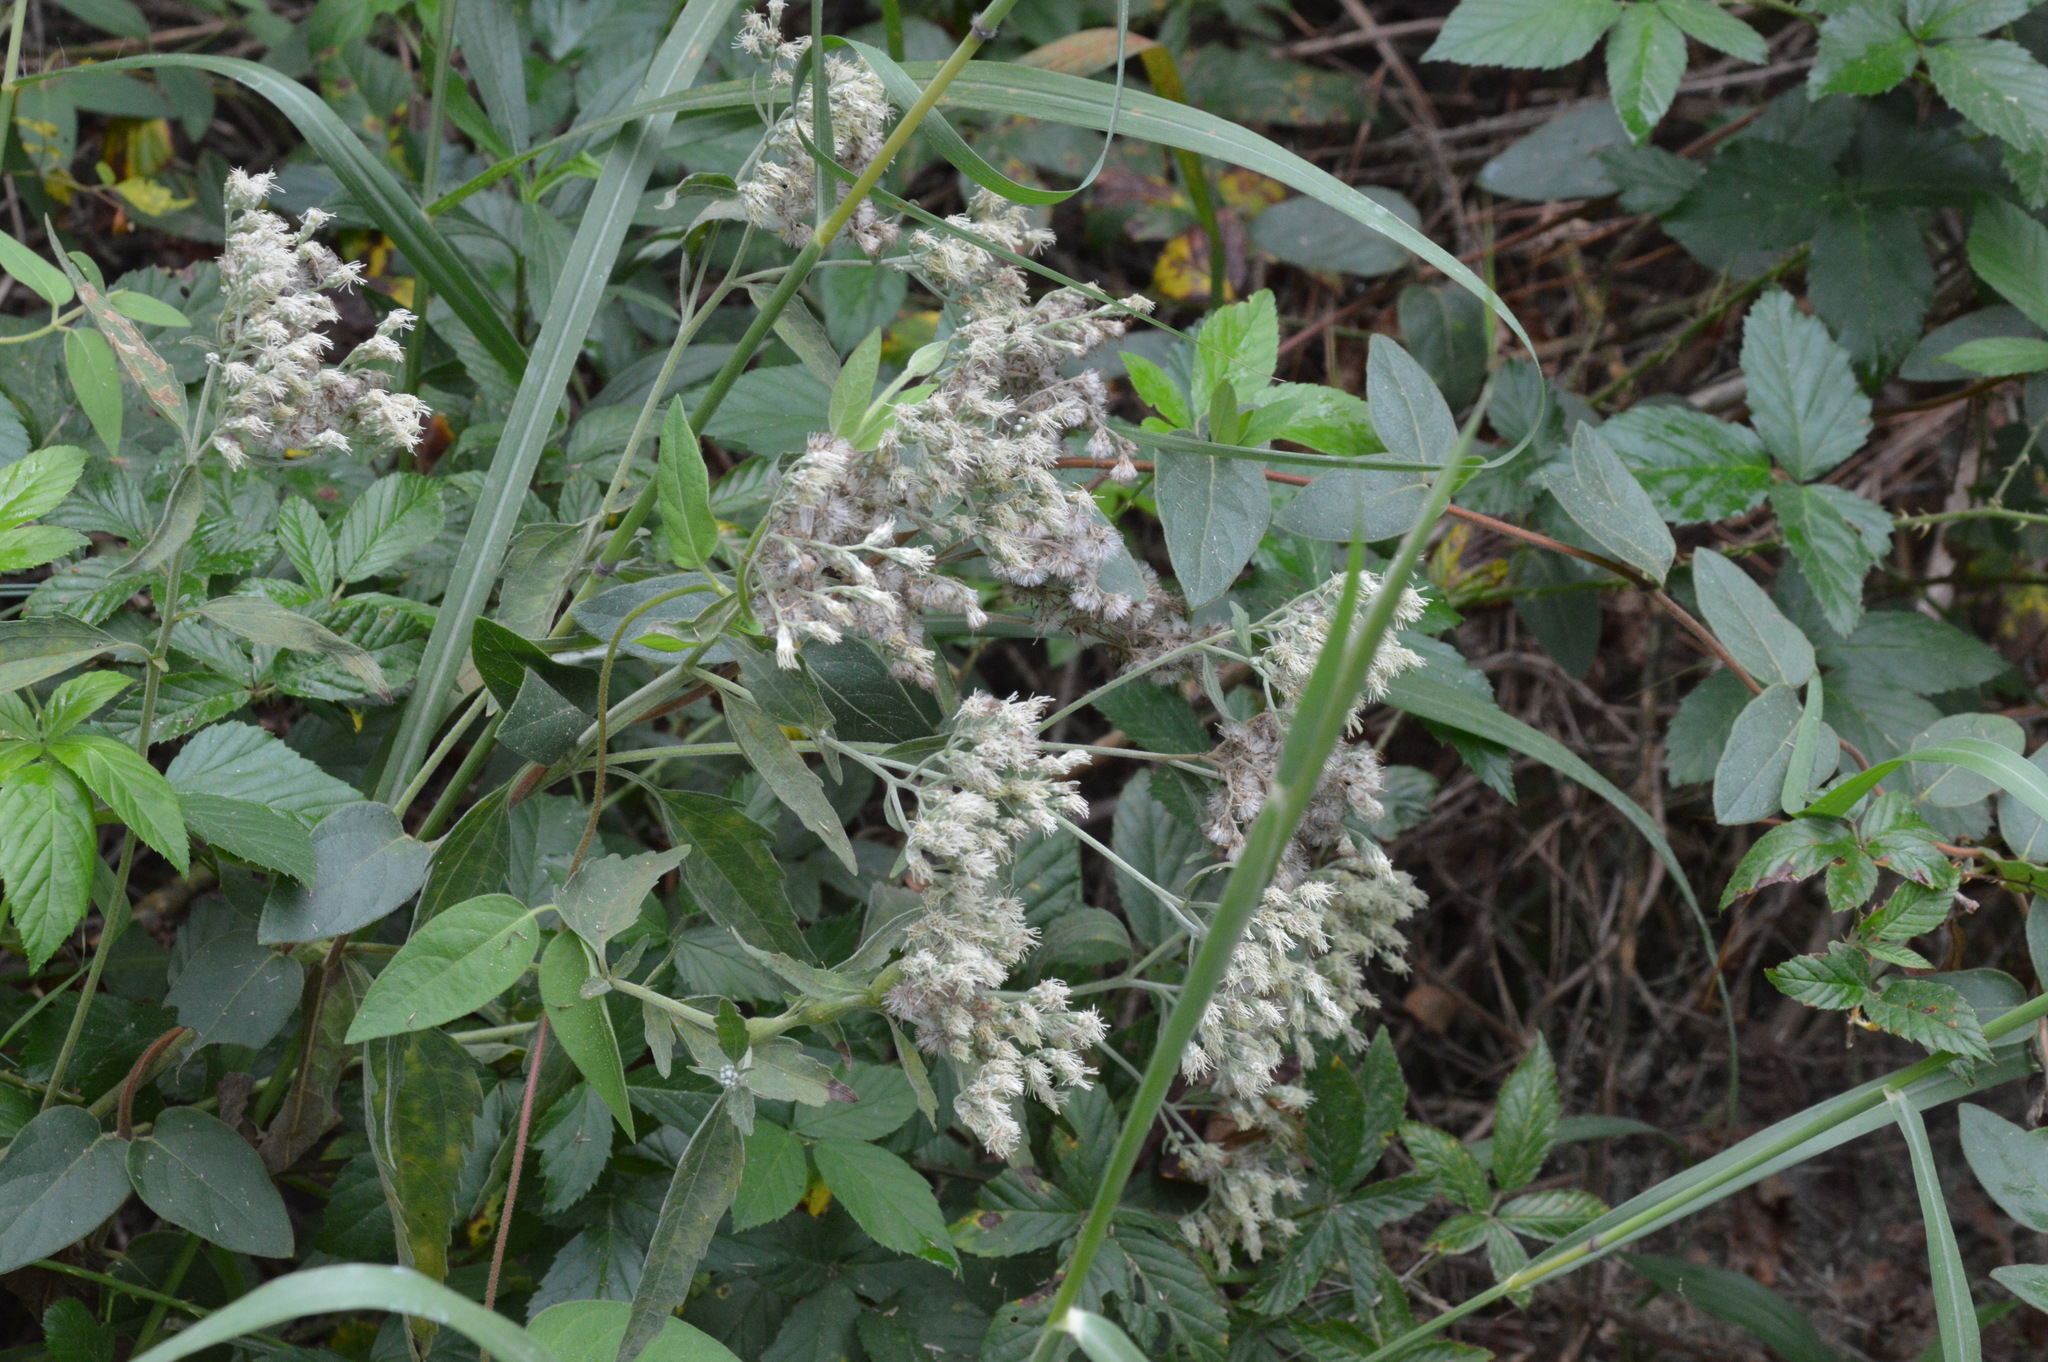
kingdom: Plantae
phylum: Tracheophyta
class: Magnoliopsida
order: Asterales
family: Asteraceae
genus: Eupatorium
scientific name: Eupatorium serotinum
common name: Late boneset
